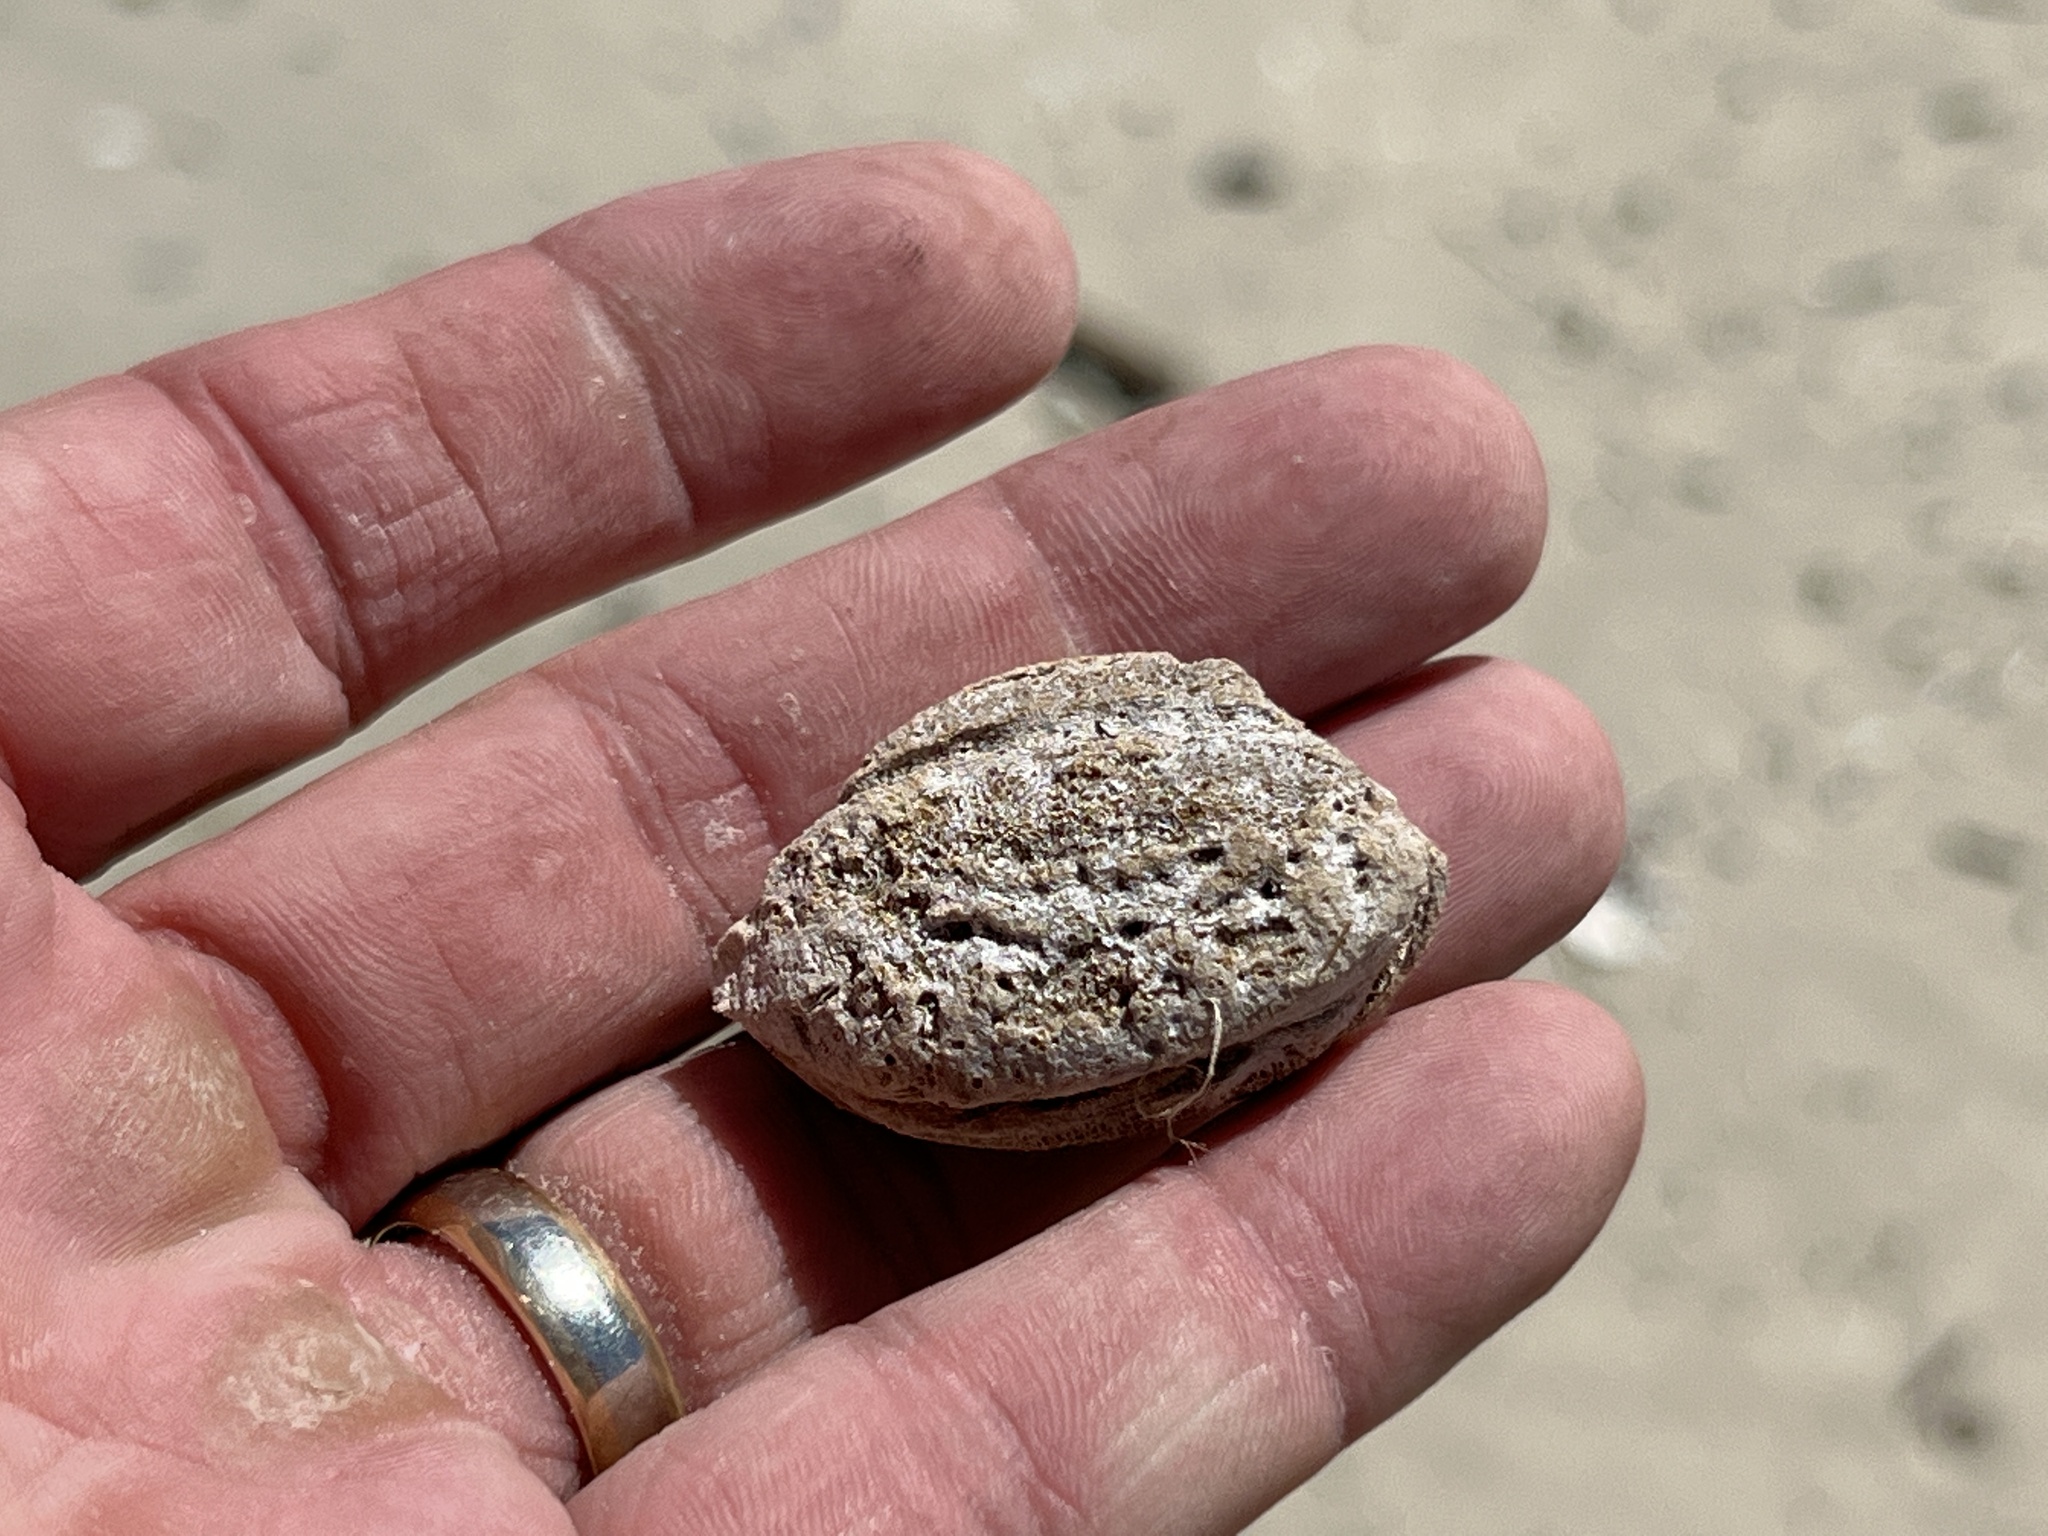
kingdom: Plantae
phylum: Tracheophyta
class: Magnoliopsida
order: Myrtales
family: Combretaceae
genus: Terminalia
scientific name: Terminalia catappa
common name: Tropical almond
